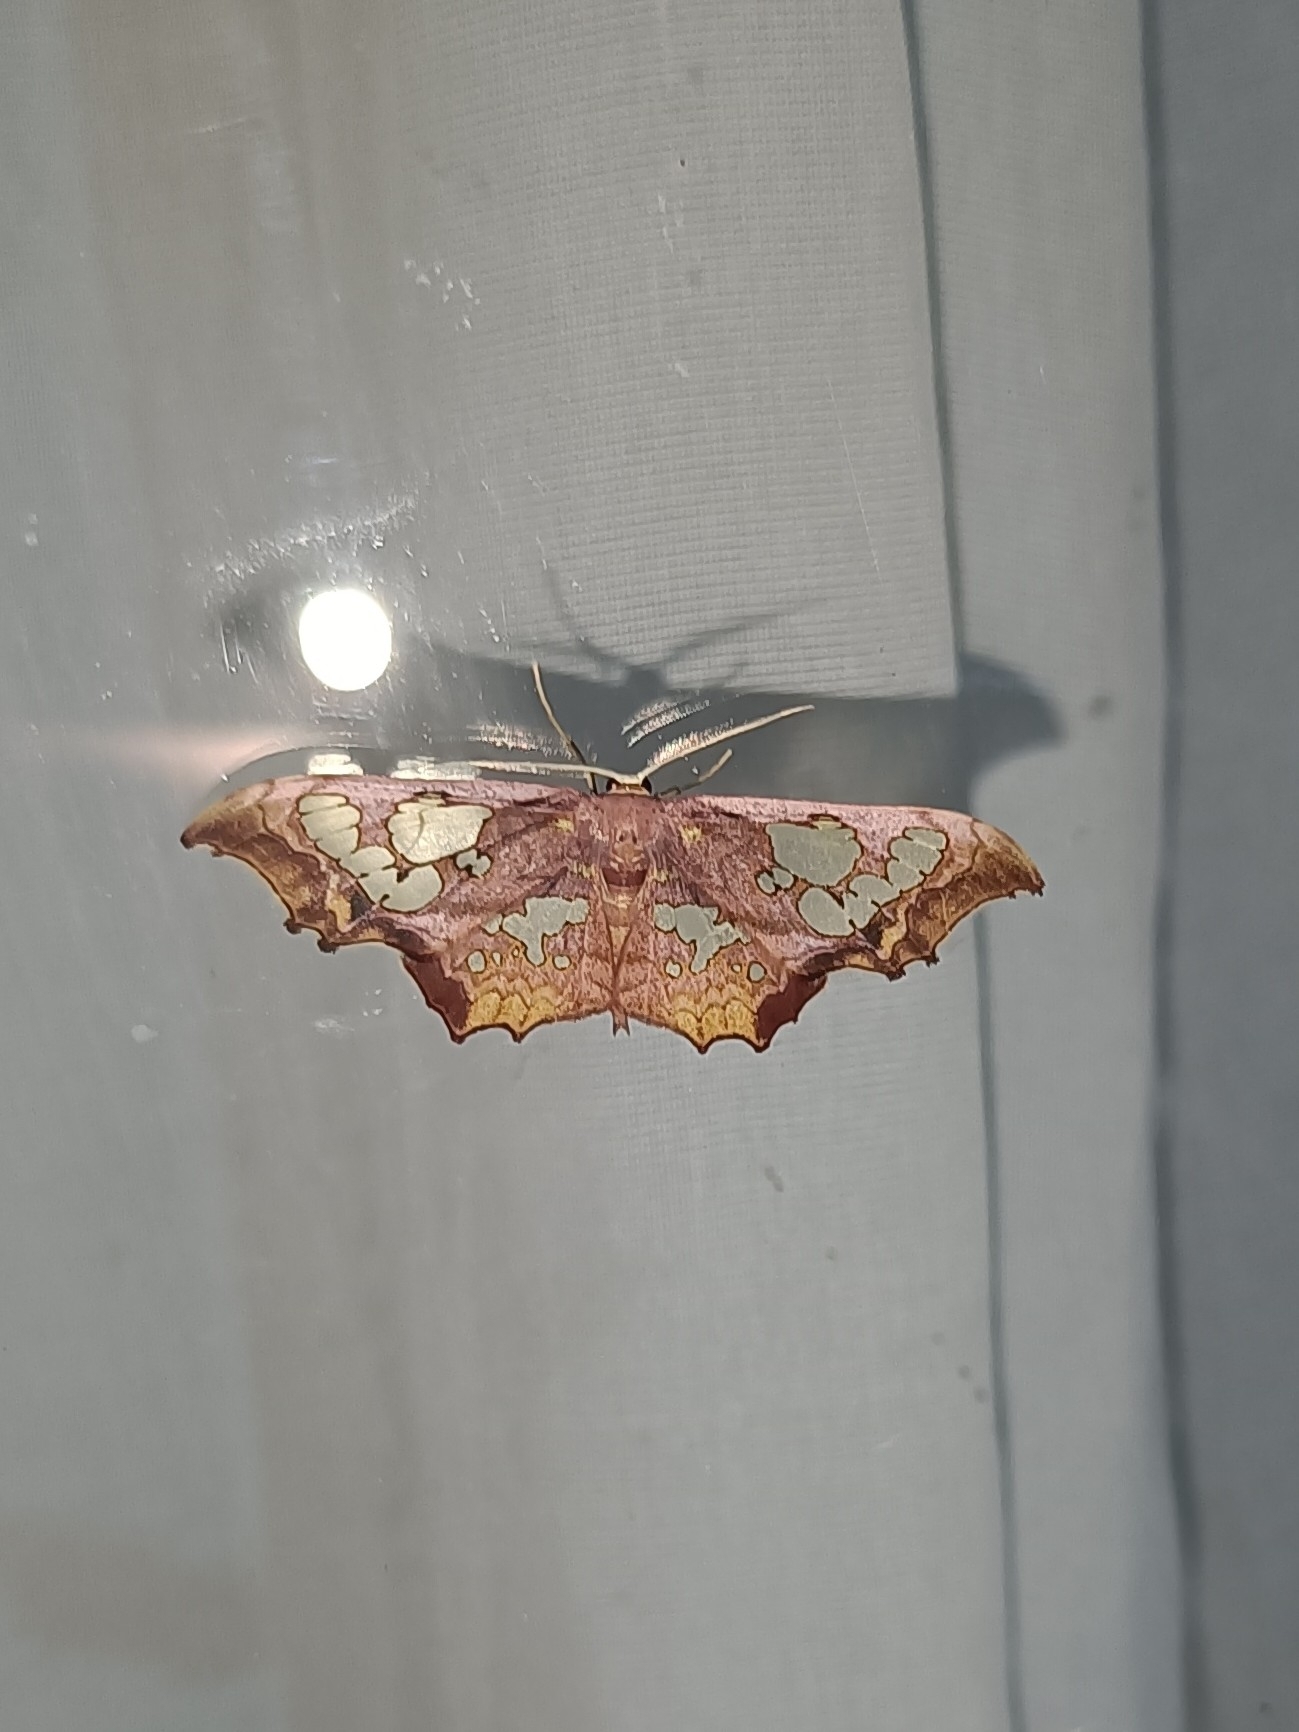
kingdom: Animalia
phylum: Arthropoda
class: Insecta
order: Lepidoptera
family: Geometridae
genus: Pseudasellodes
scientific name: Pseudasellodes fenestraria
